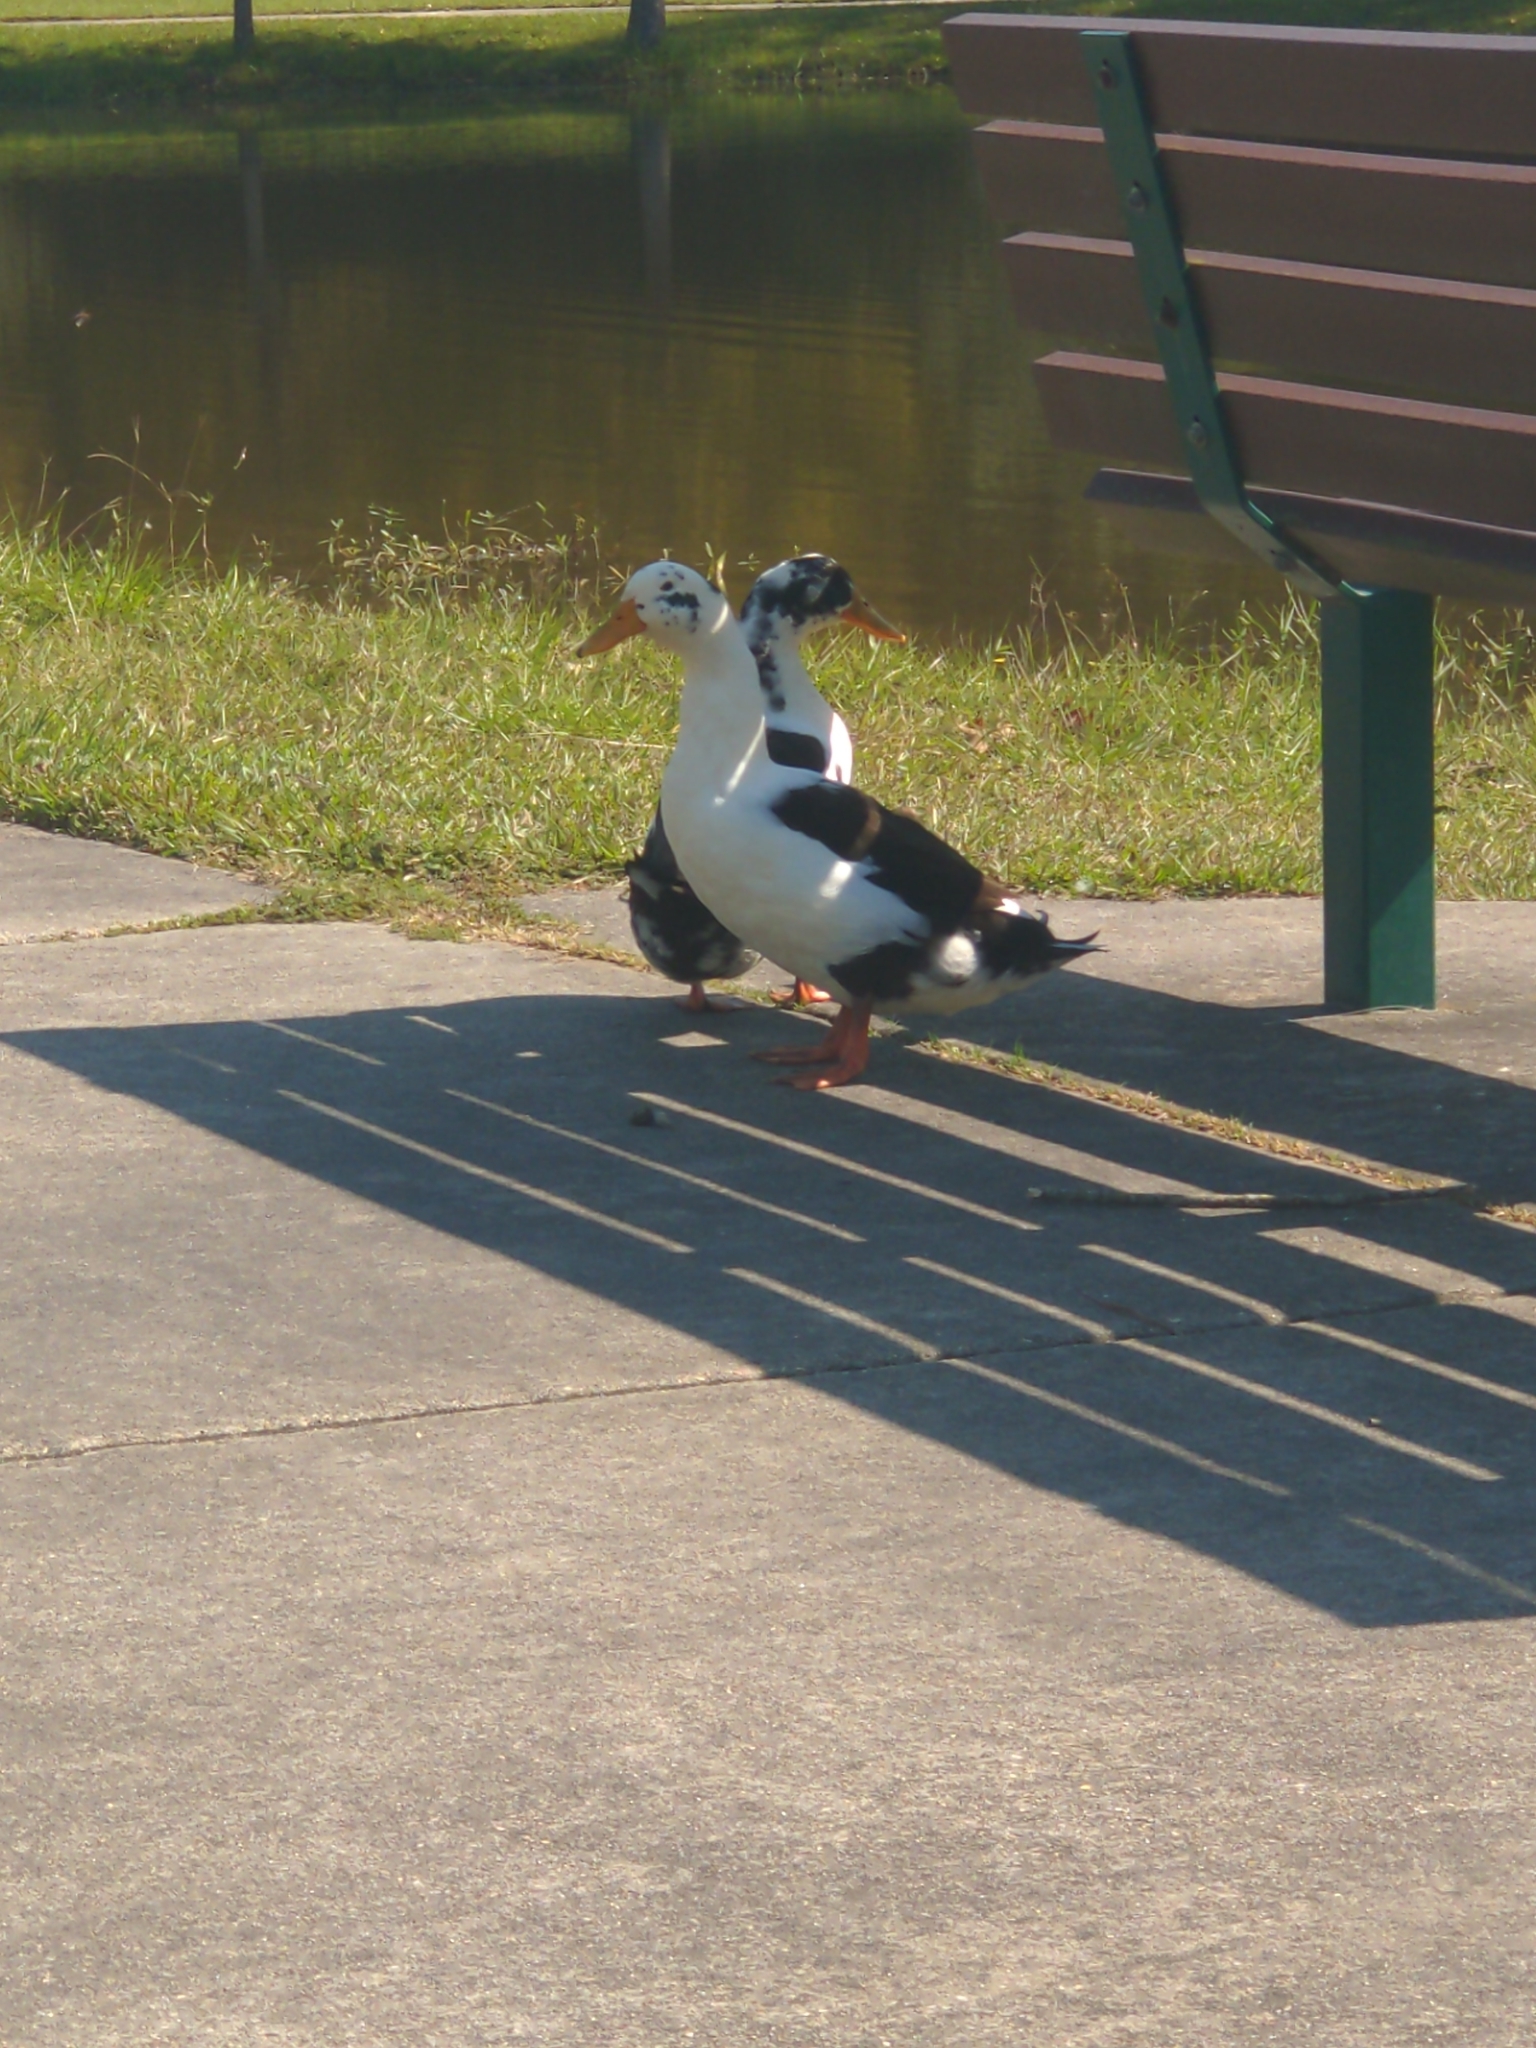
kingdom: Animalia
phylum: Chordata
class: Aves
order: Anseriformes
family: Anatidae
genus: Anas
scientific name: Anas platyrhynchos
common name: Mallard
